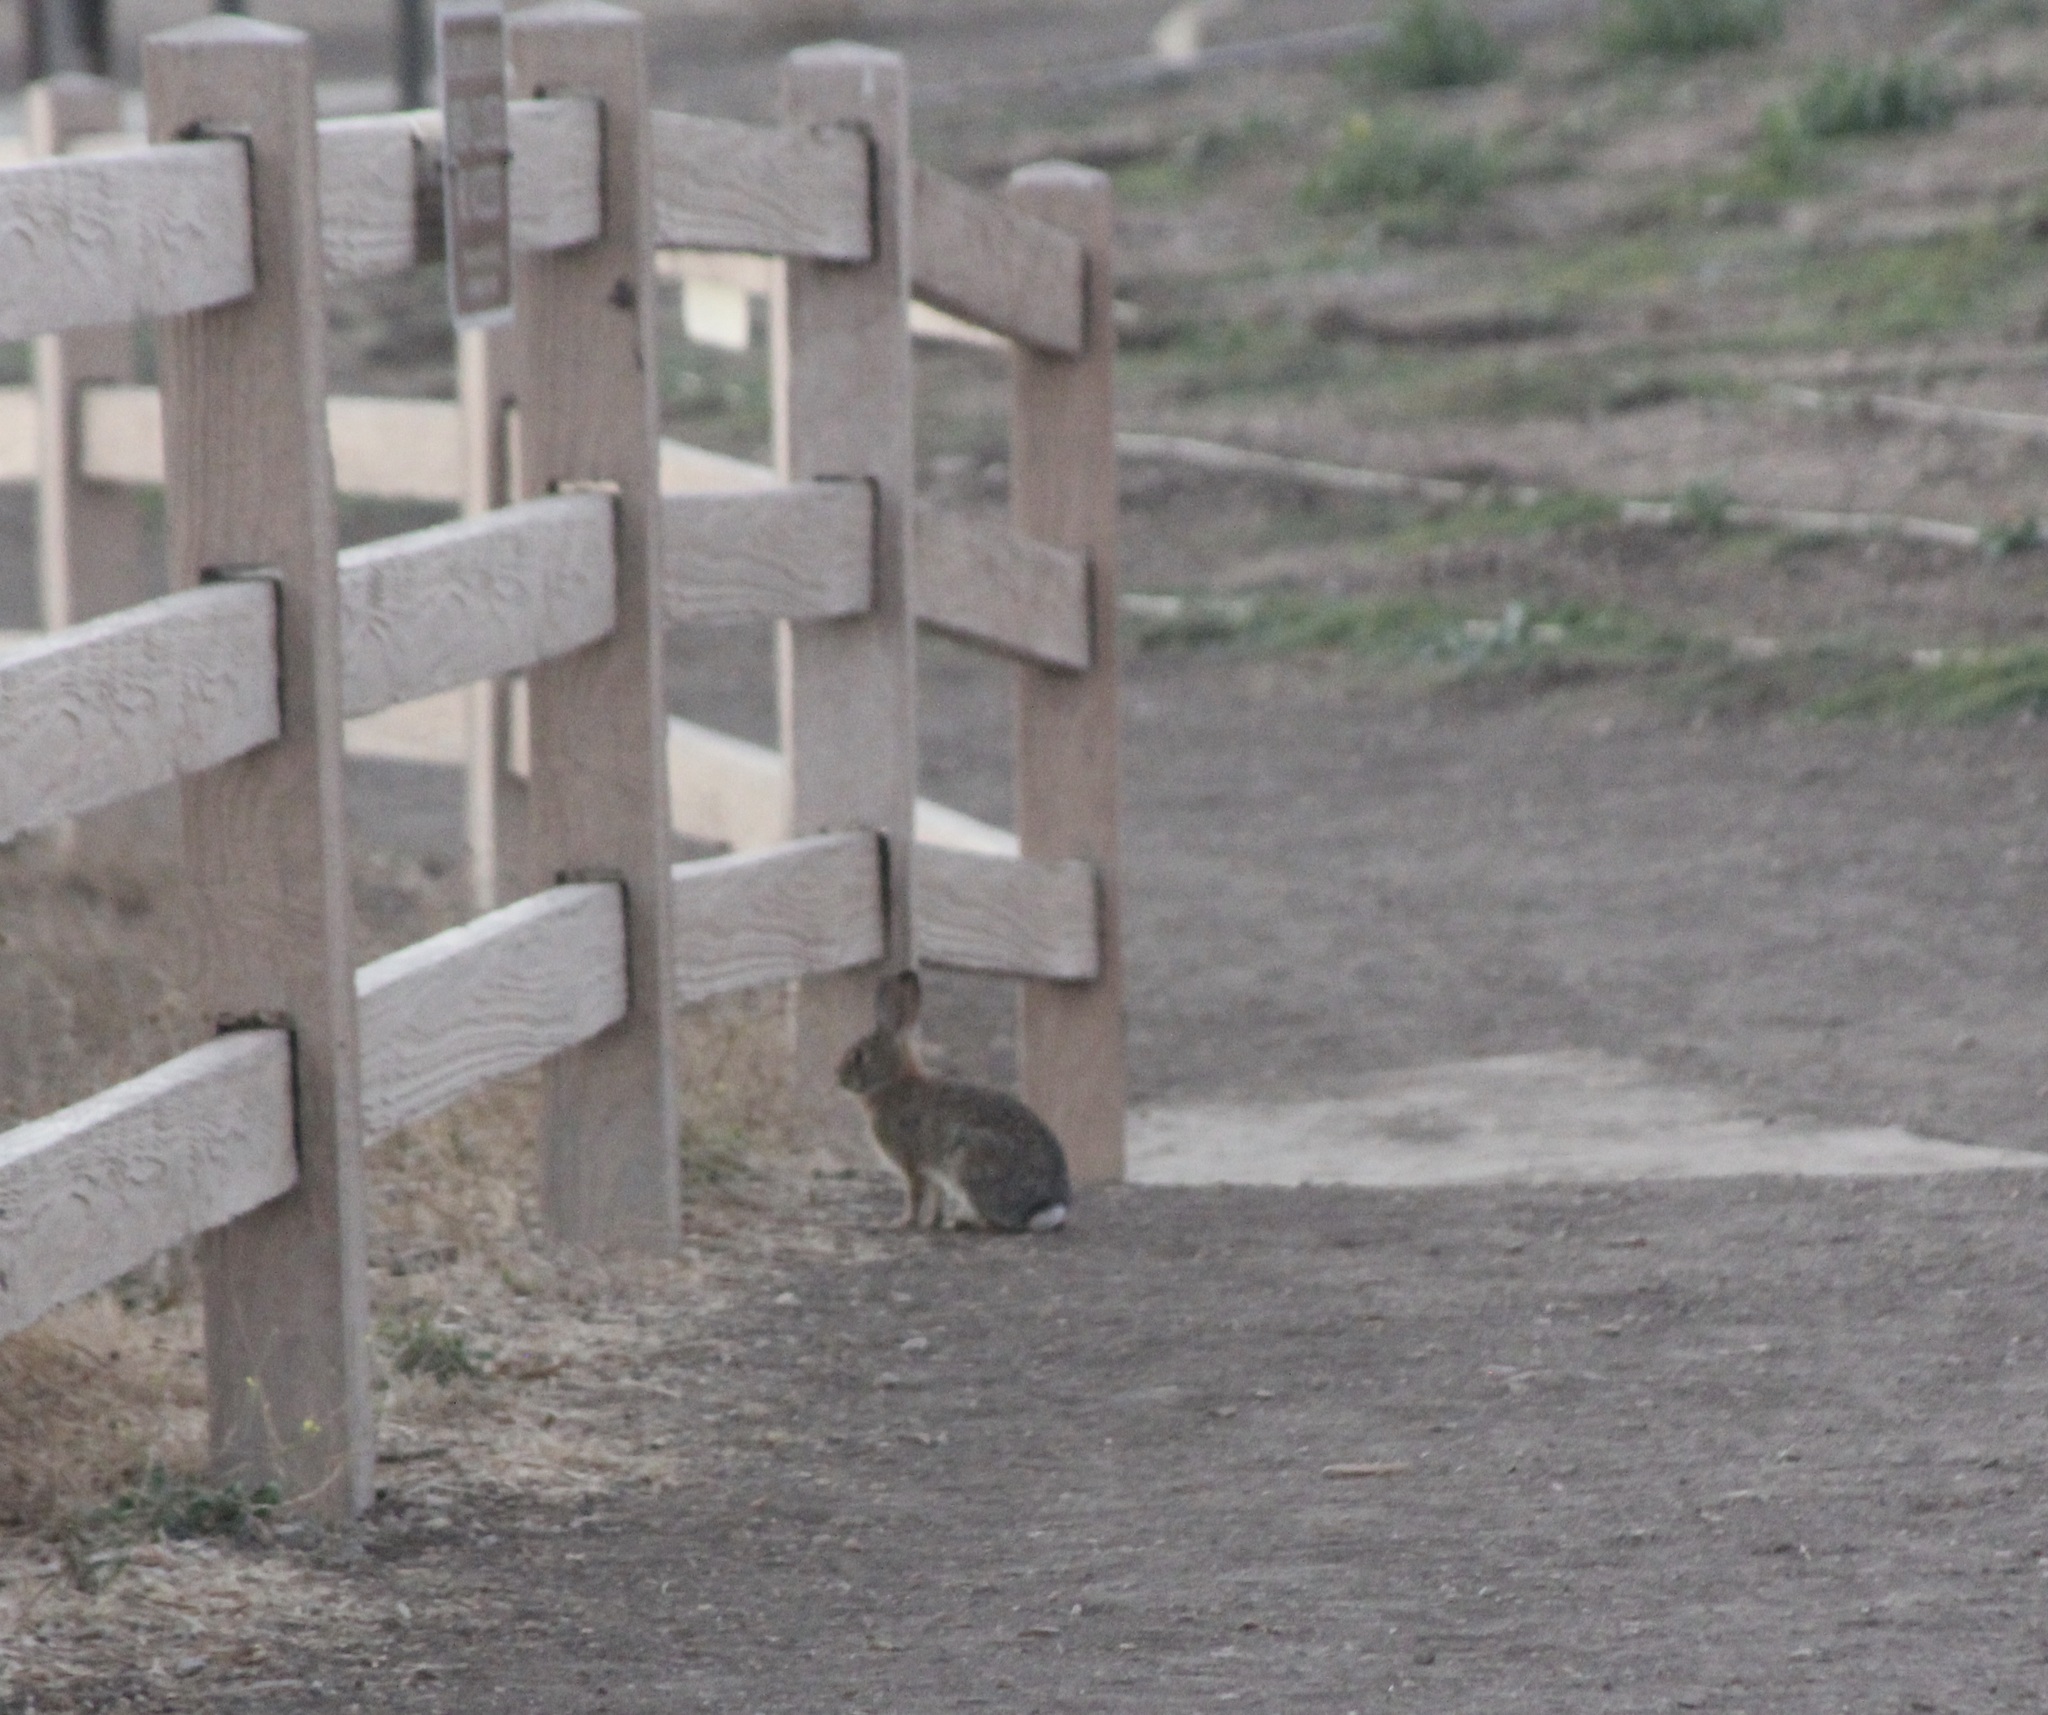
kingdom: Animalia
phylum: Chordata
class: Mammalia
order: Lagomorpha
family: Leporidae
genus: Sylvilagus
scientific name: Sylvilagus audubonii
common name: Desert cottontail
